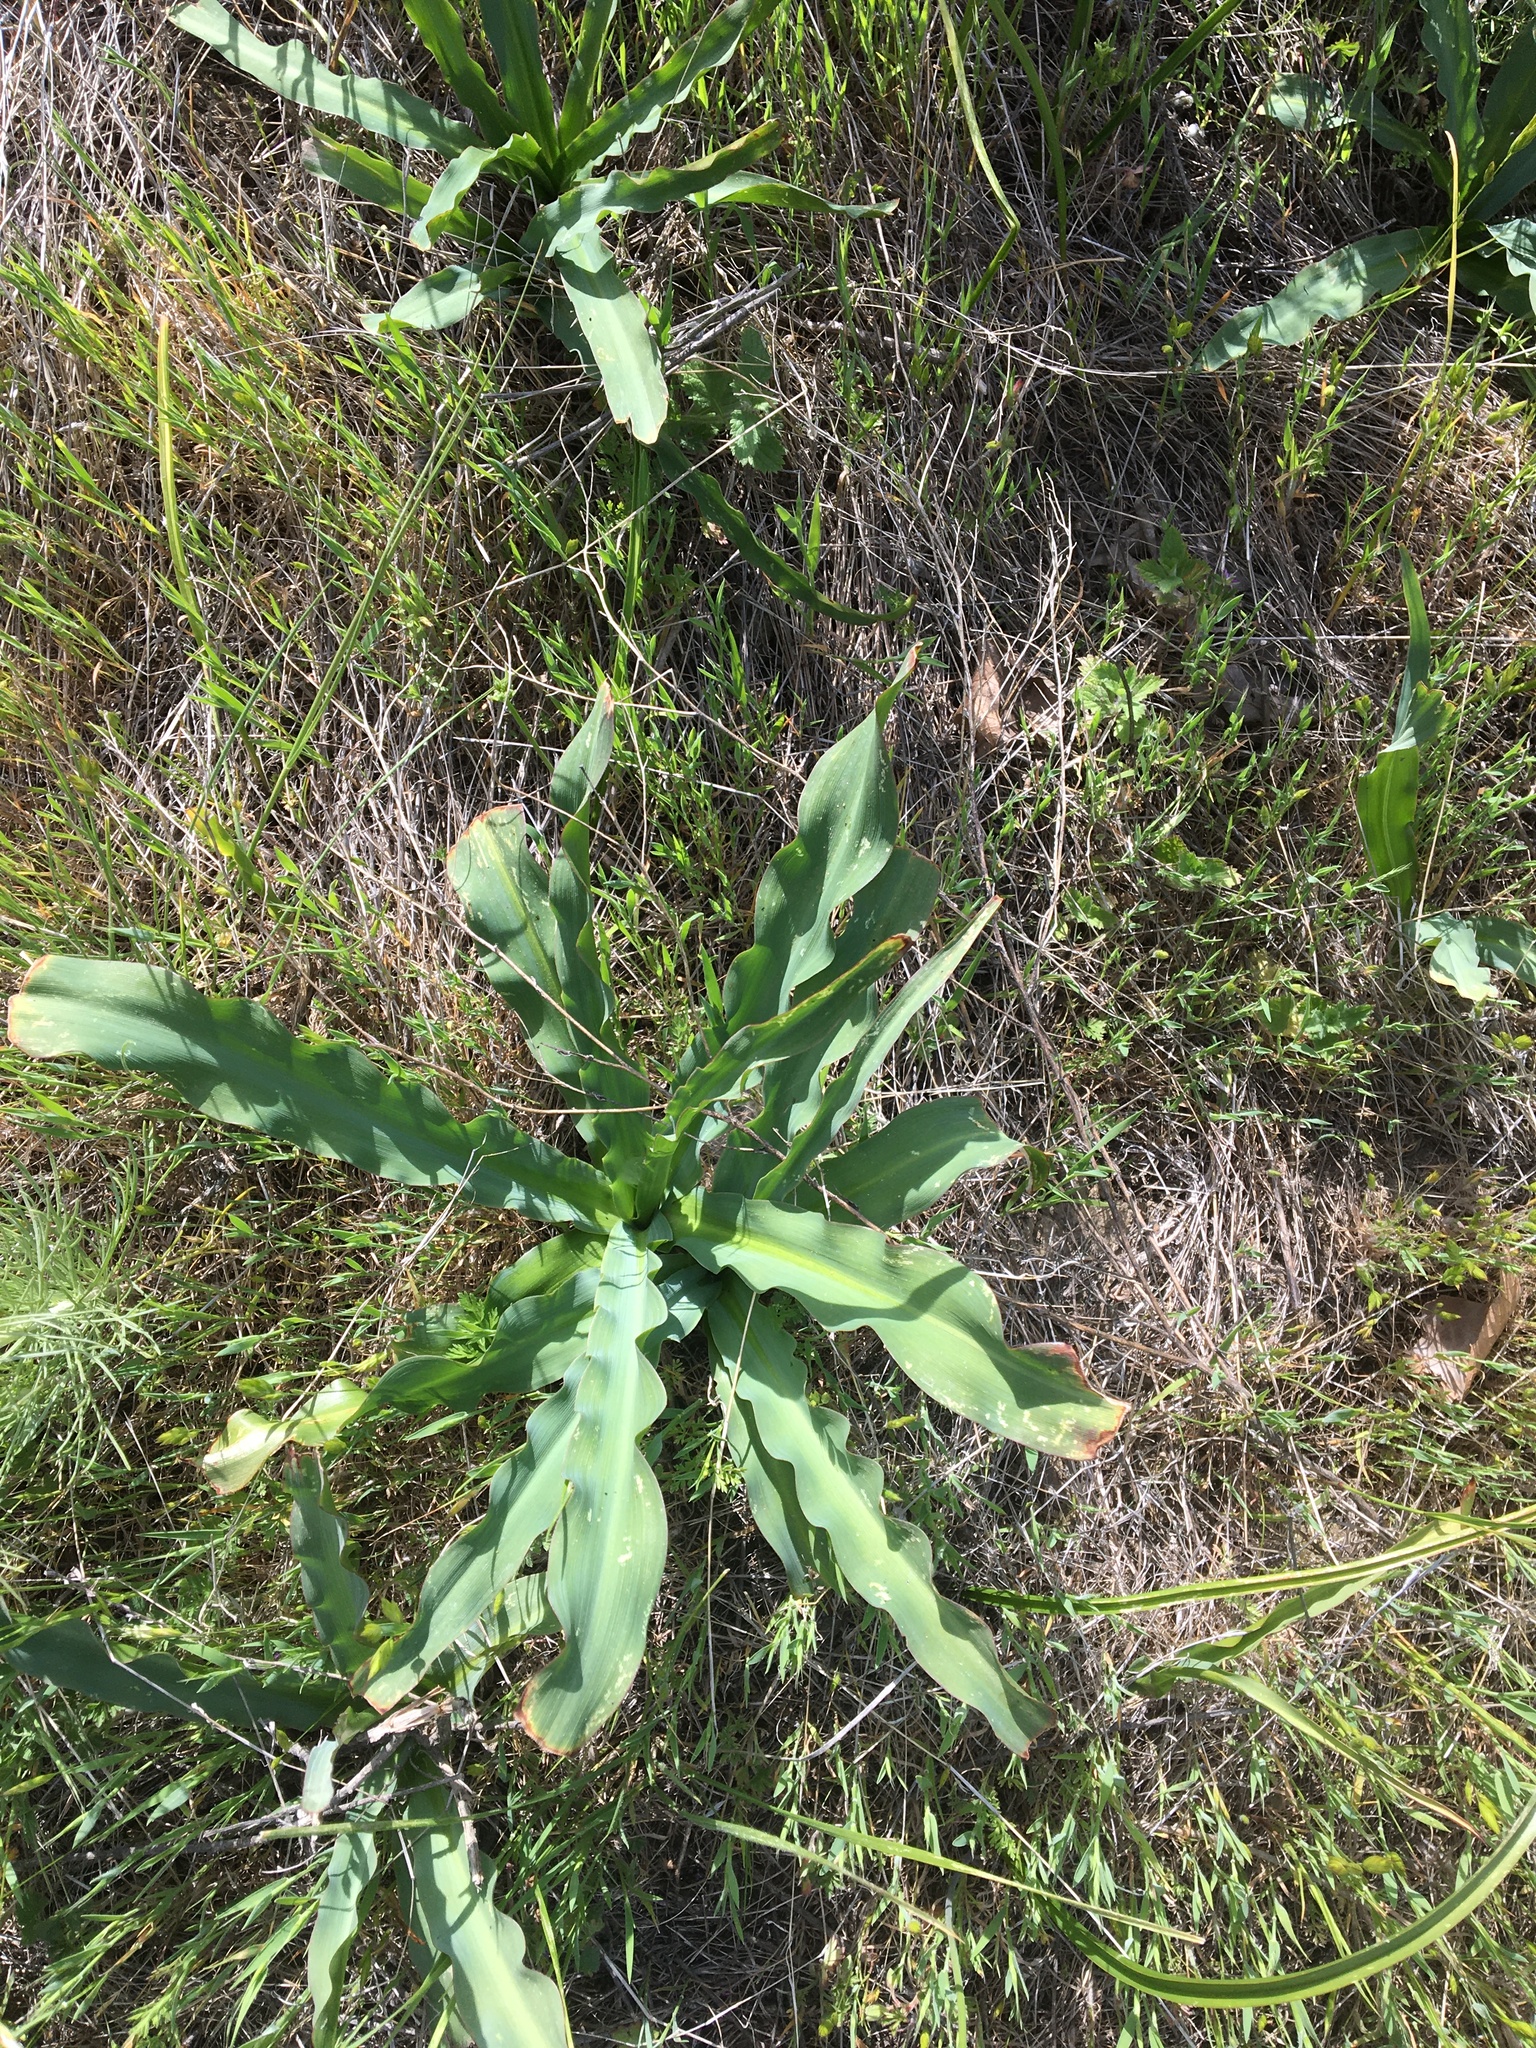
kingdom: Plantae
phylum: Tracheophyta
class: Liliopsida
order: Asparagales
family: Asparagaceae
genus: Chlorogalum
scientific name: Chlorogalum pomeridianum
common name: Amole
